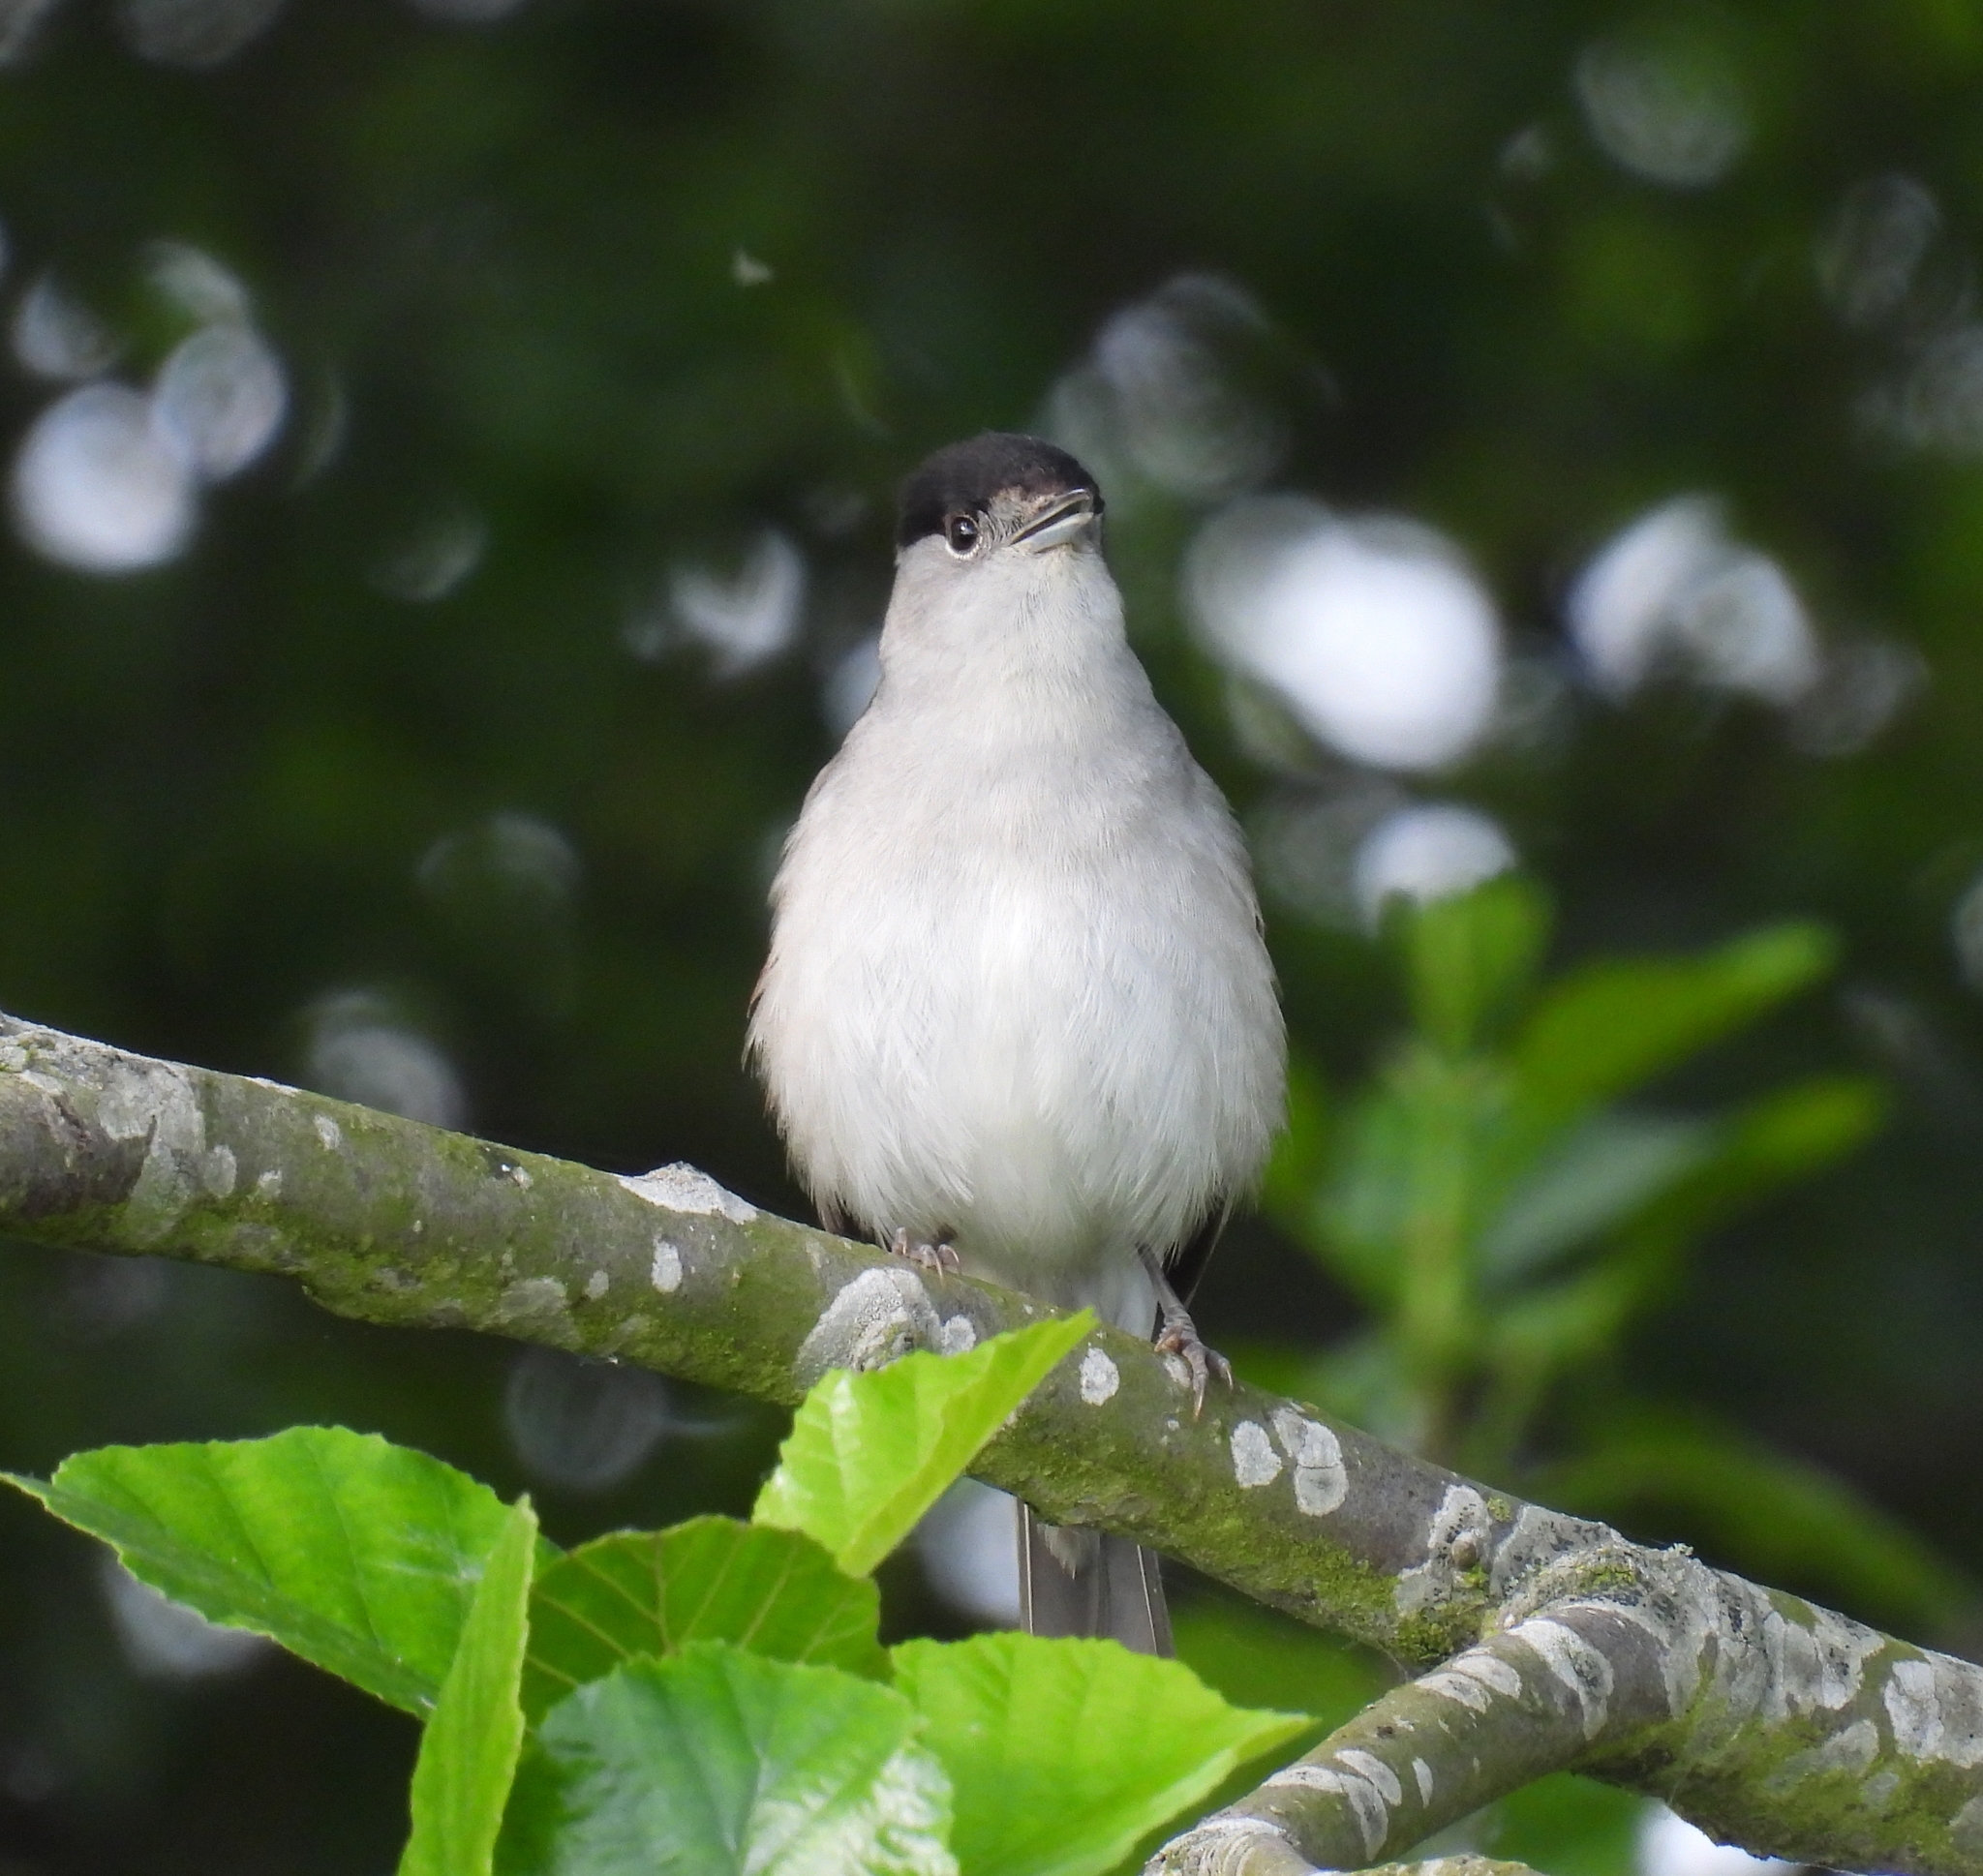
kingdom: Animalia
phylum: Chordata
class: Aves
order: Passeriformes
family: Sylviidae
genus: Sylvia
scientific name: Sylvia atricapilla
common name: Eurasian blackcap
